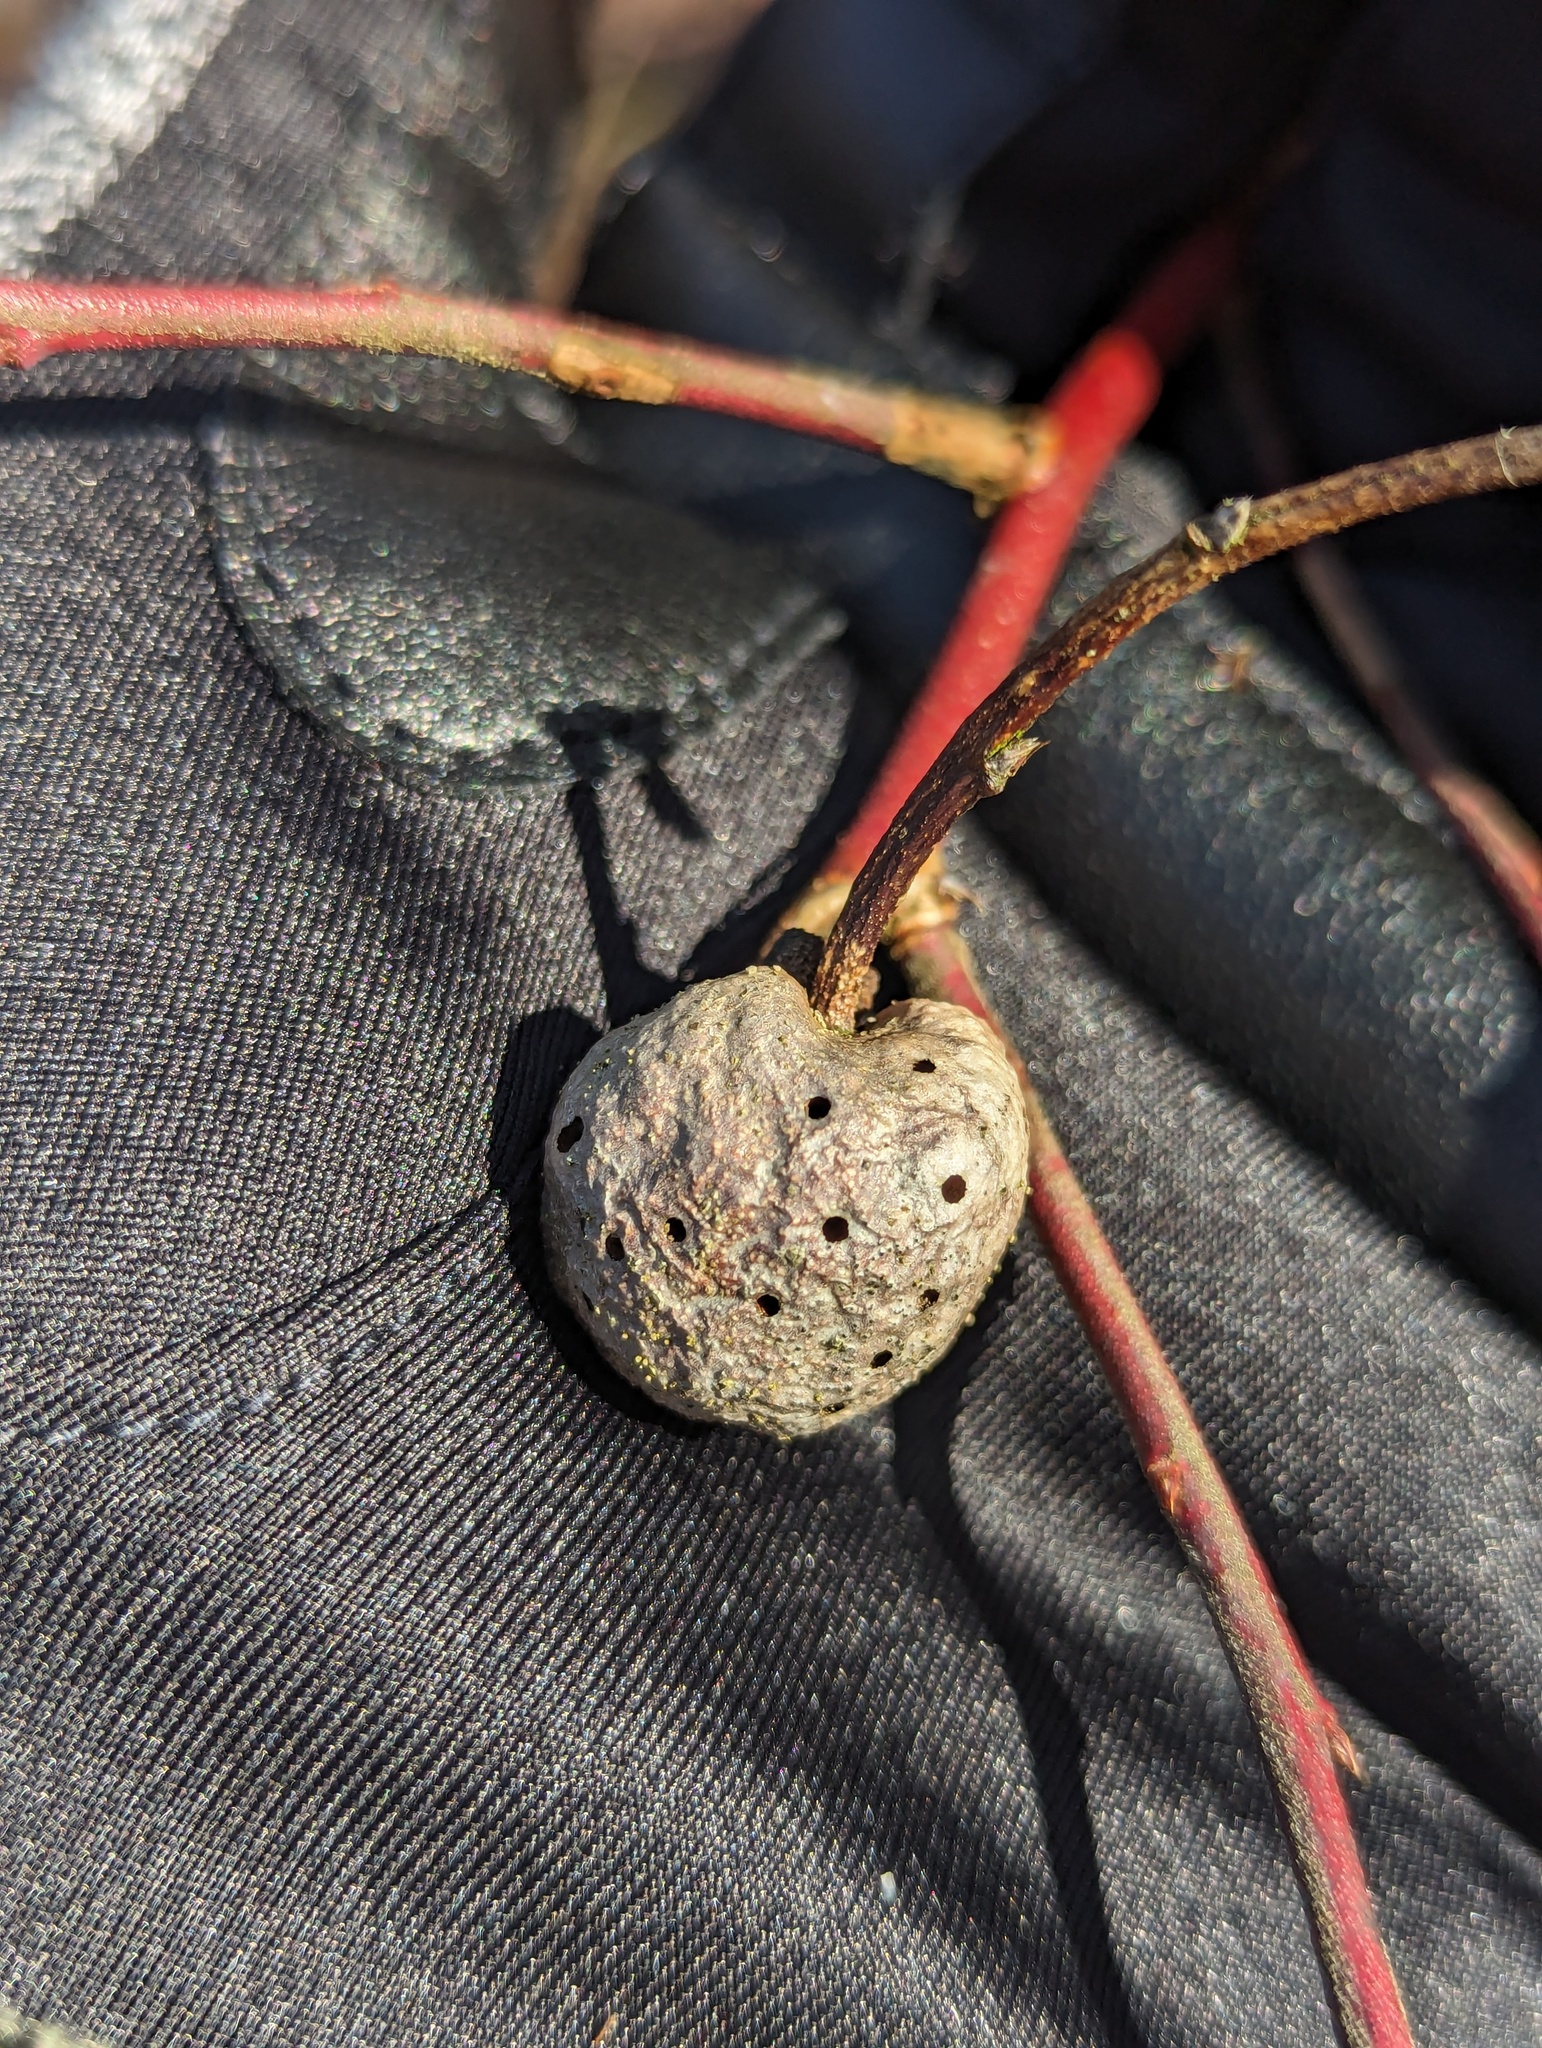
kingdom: Animalia
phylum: Arthropoda
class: Insecta
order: Hymenoptera
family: Pteromalidae
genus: Hemadas
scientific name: Hemadas nubilipennis
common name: Blueberry stem gall wasp
